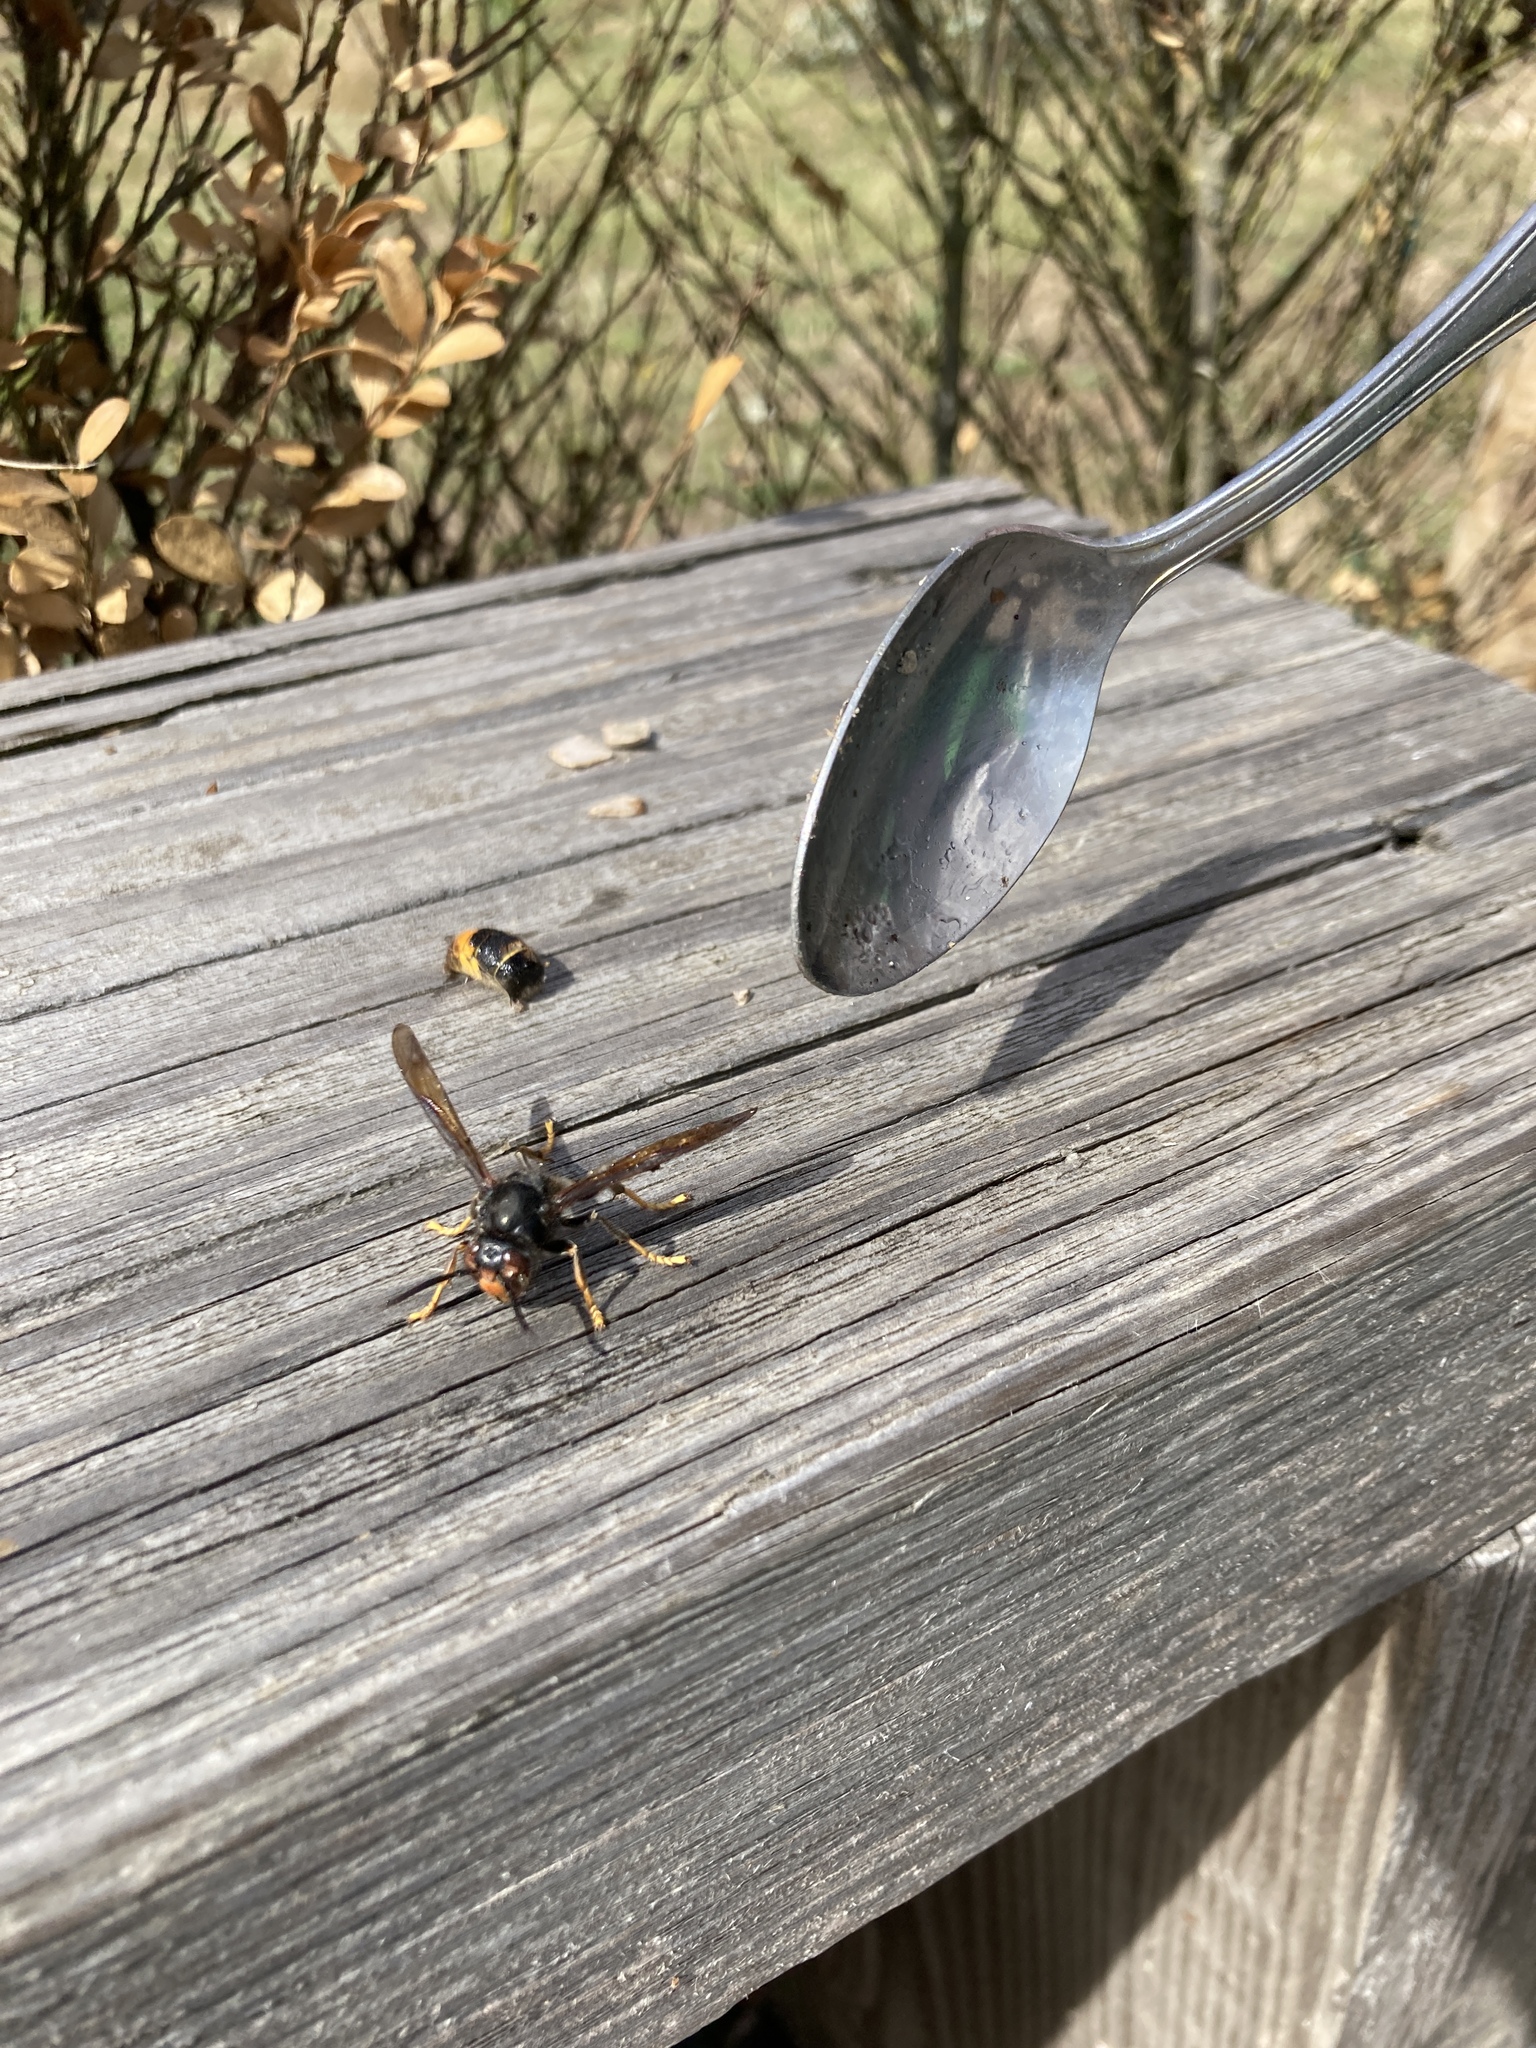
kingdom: Animalia
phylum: Arthropoda
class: Insecta
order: Hymenoptera
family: Vespidae
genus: Vespa
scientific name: Vespa velutina
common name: Asian hornet
